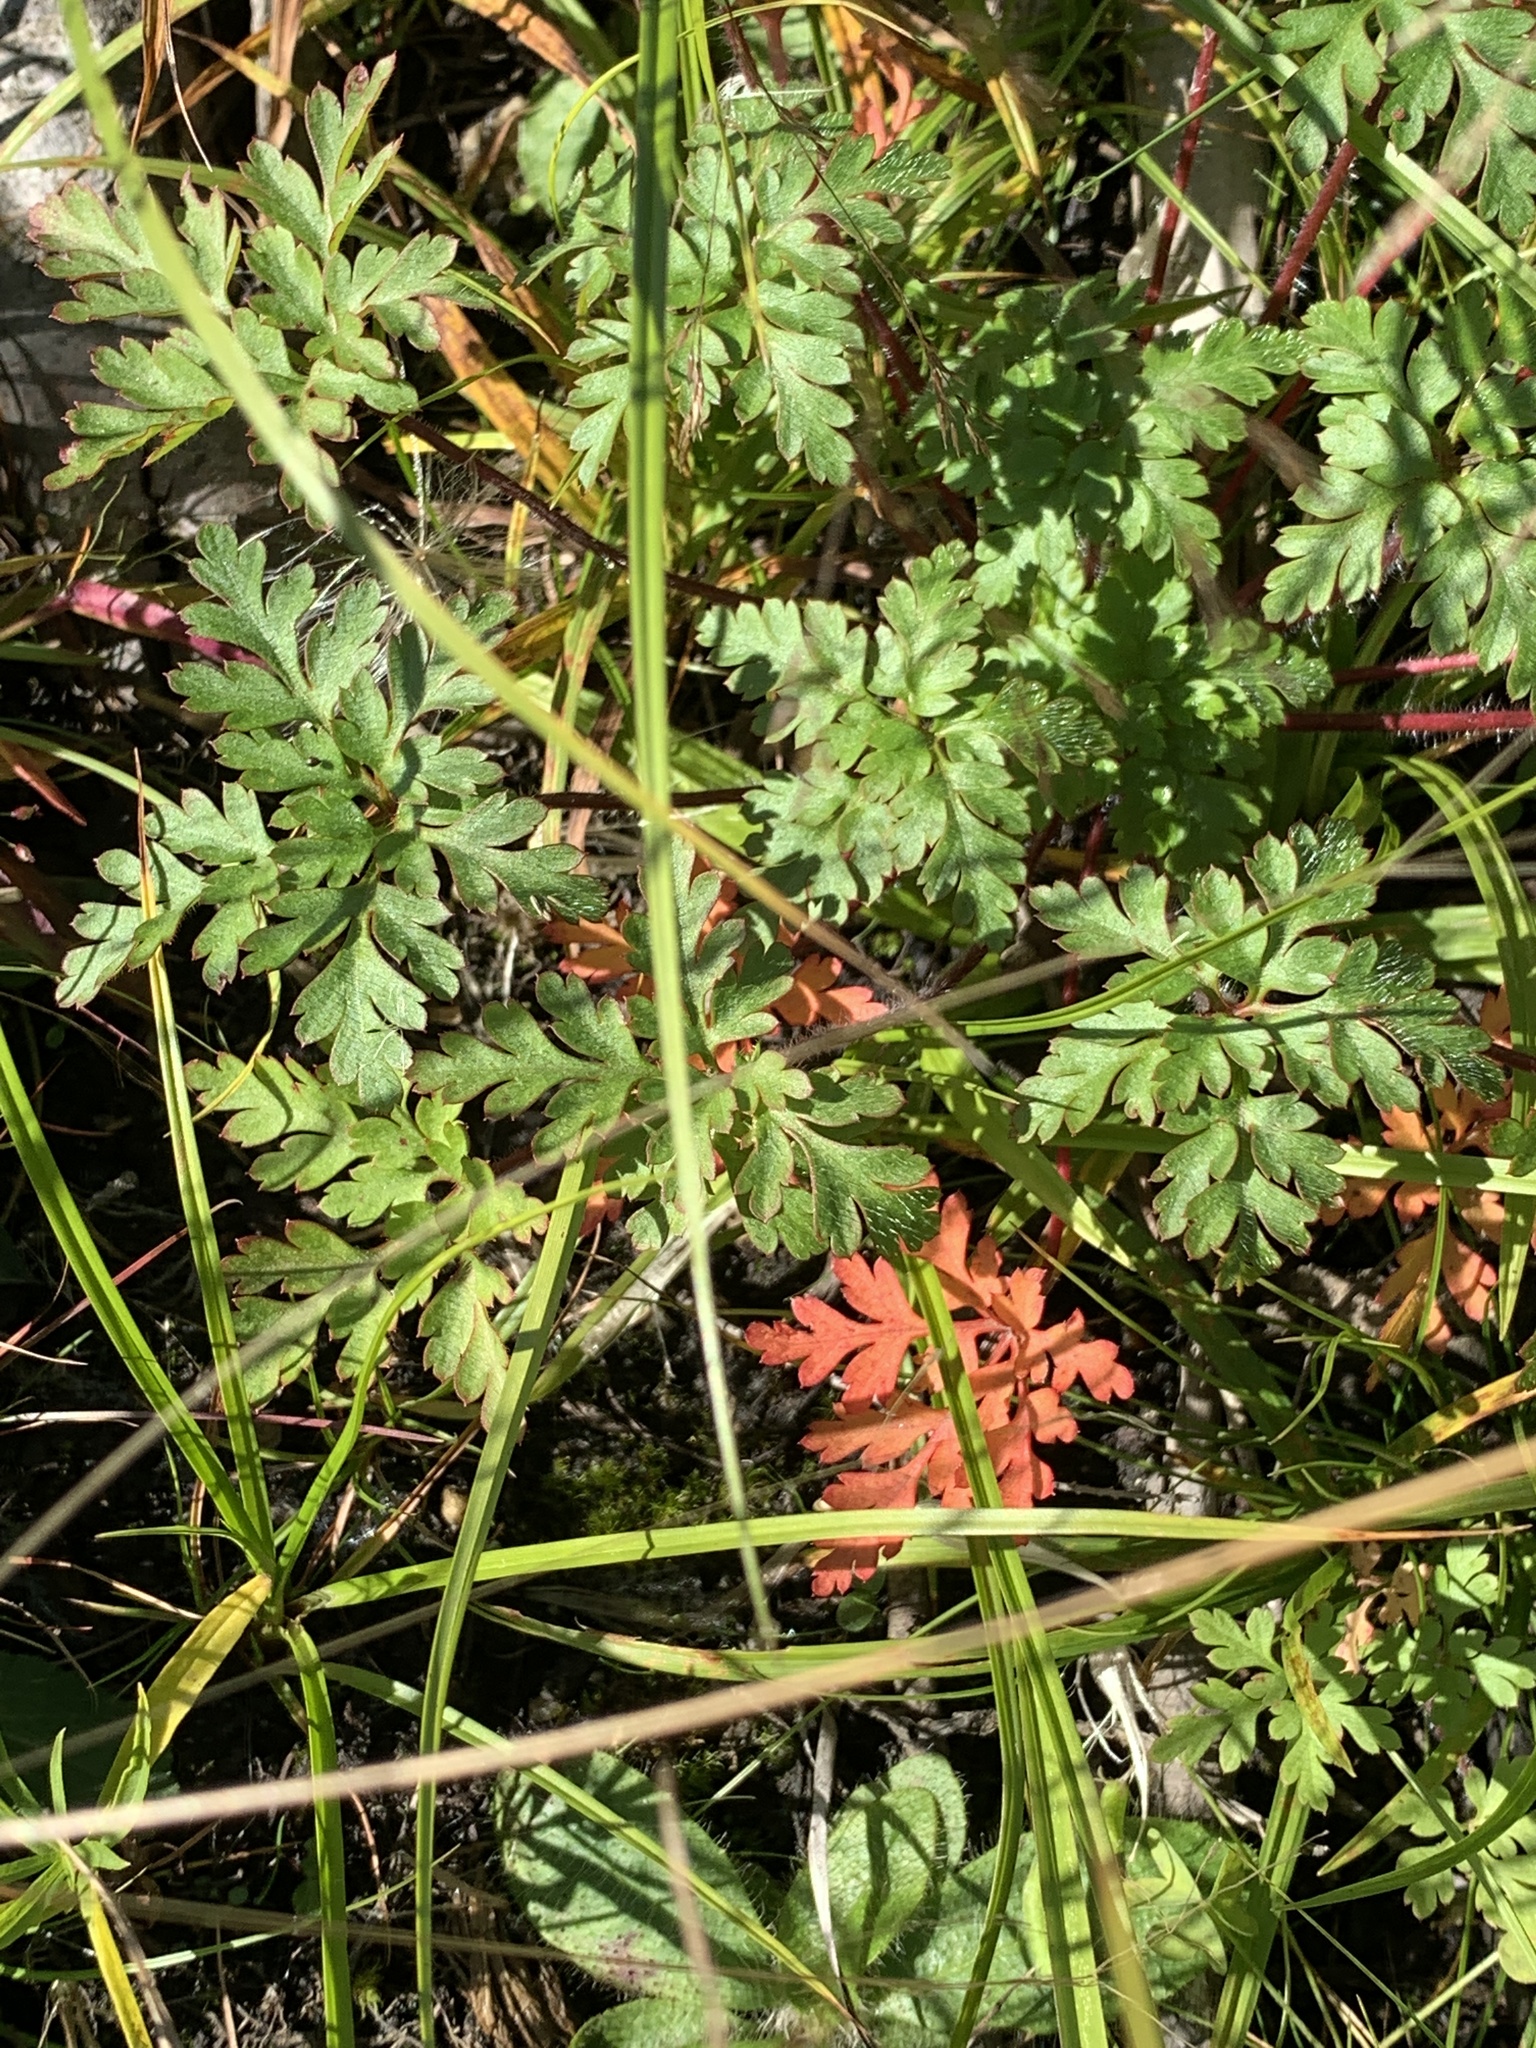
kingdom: Plantae
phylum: Tracheophyta
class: Magnoliopsida
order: Geraniales
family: Geraniaceae
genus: Geranium
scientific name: Geranium robertianum
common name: Herb-robert
